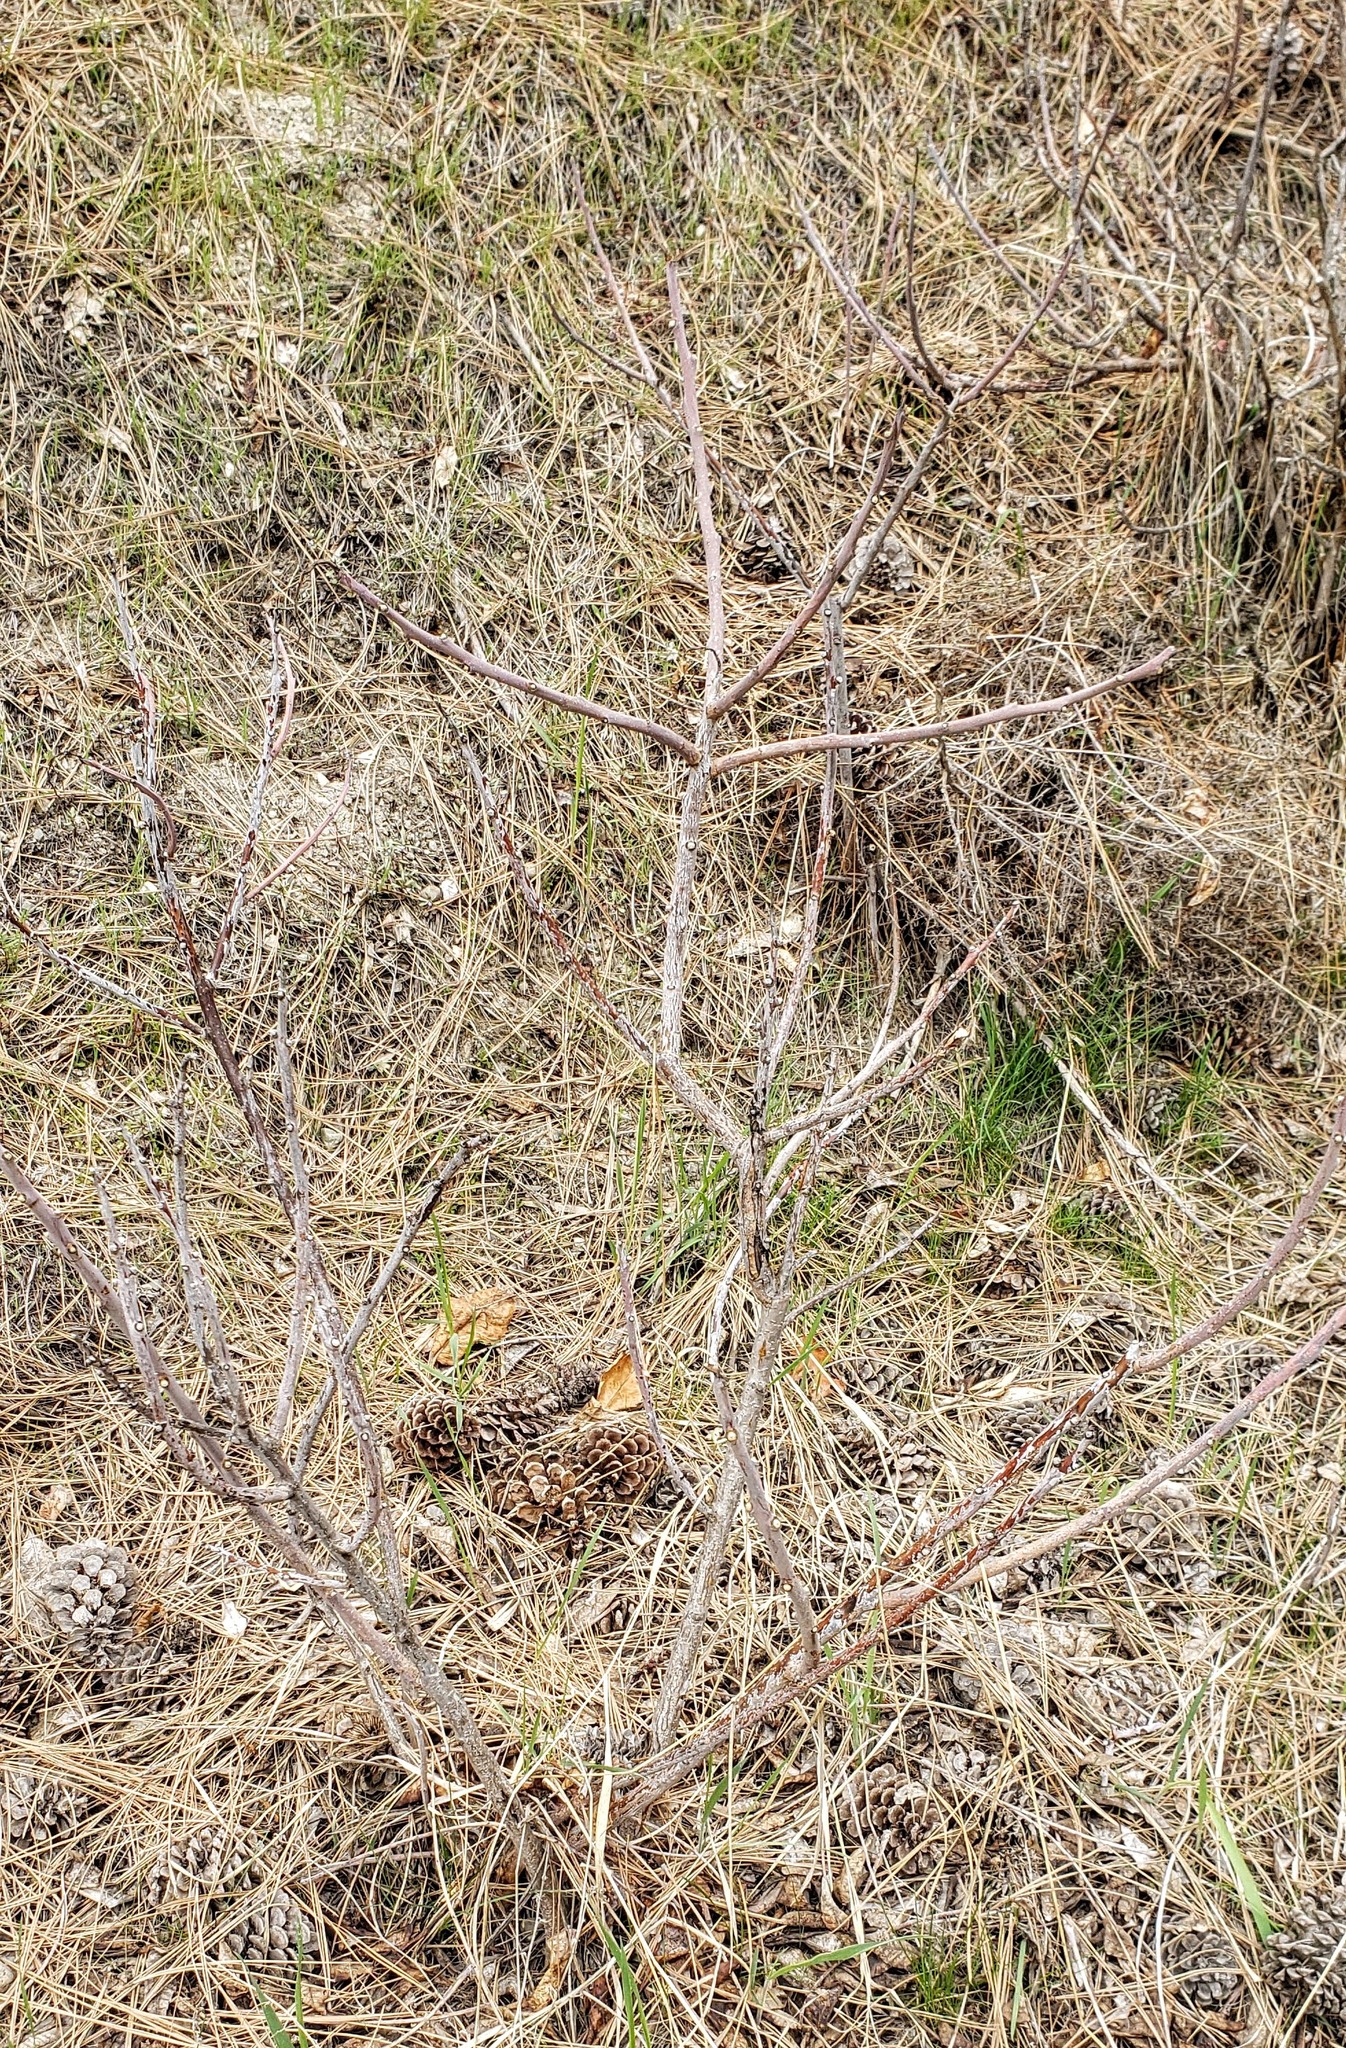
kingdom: Plantae
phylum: Tracheophyta
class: Magnoliopsida
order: Sapindales
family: Anacardiaceae
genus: Rhus
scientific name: Rhus glabra
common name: Scarlet sumac
